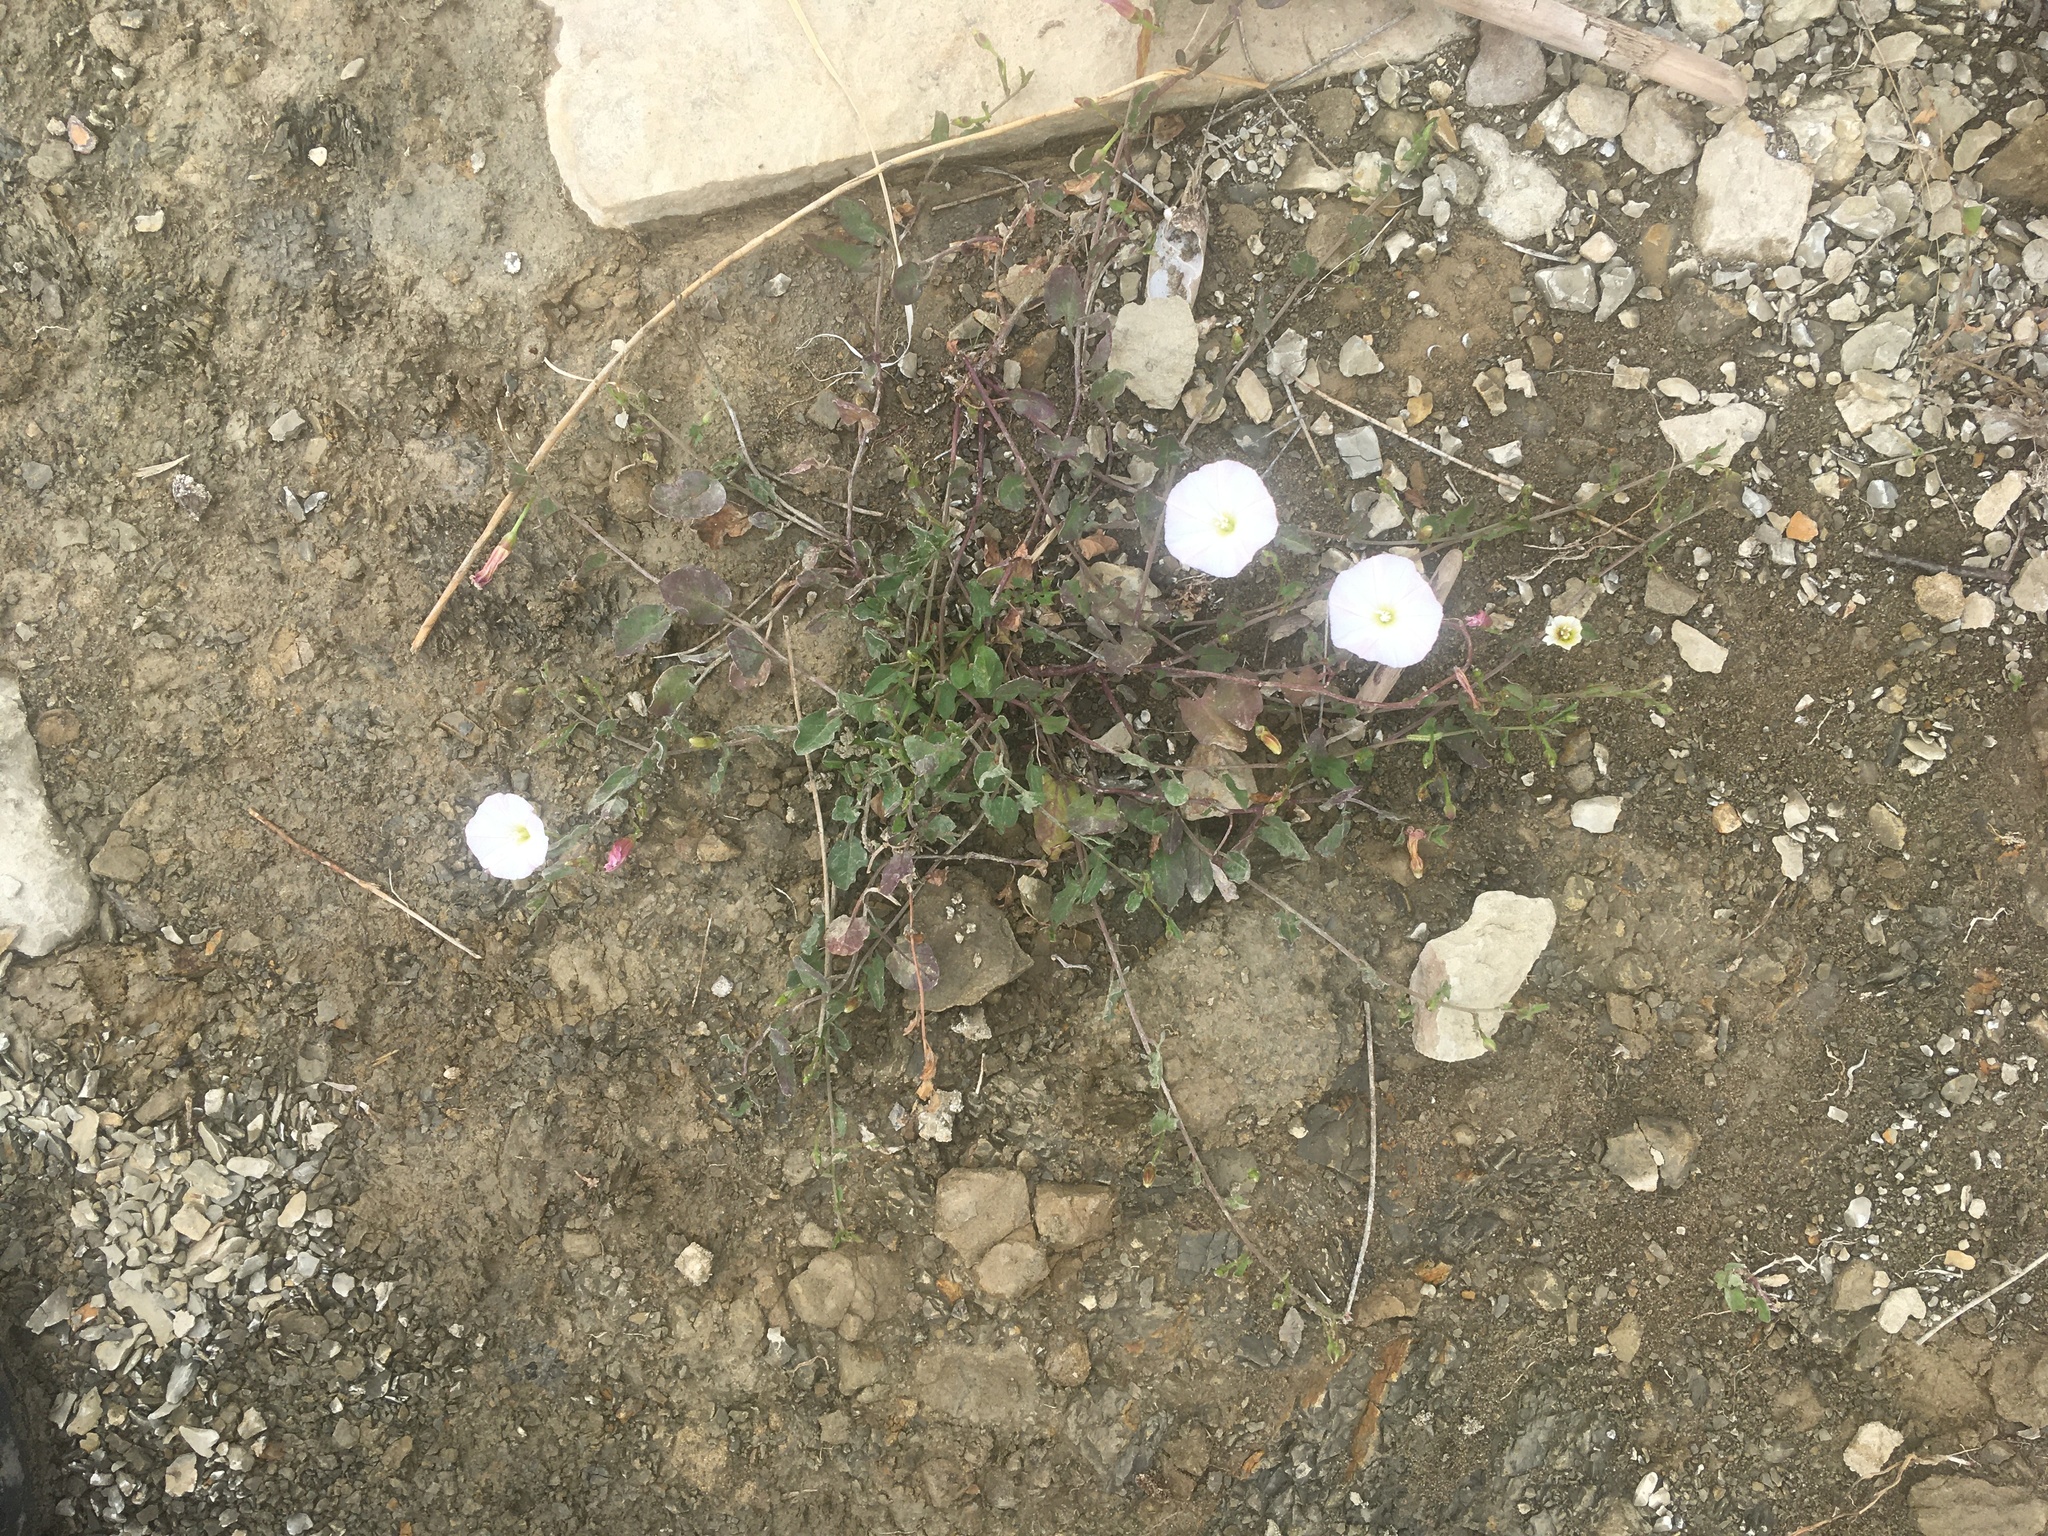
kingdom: Plantae
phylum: Tracheophyta
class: Magnoliopsida
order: Solanales
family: Convolvulaceae
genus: Convolvulus
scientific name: Convolvulus arvensis
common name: Field bindweed
